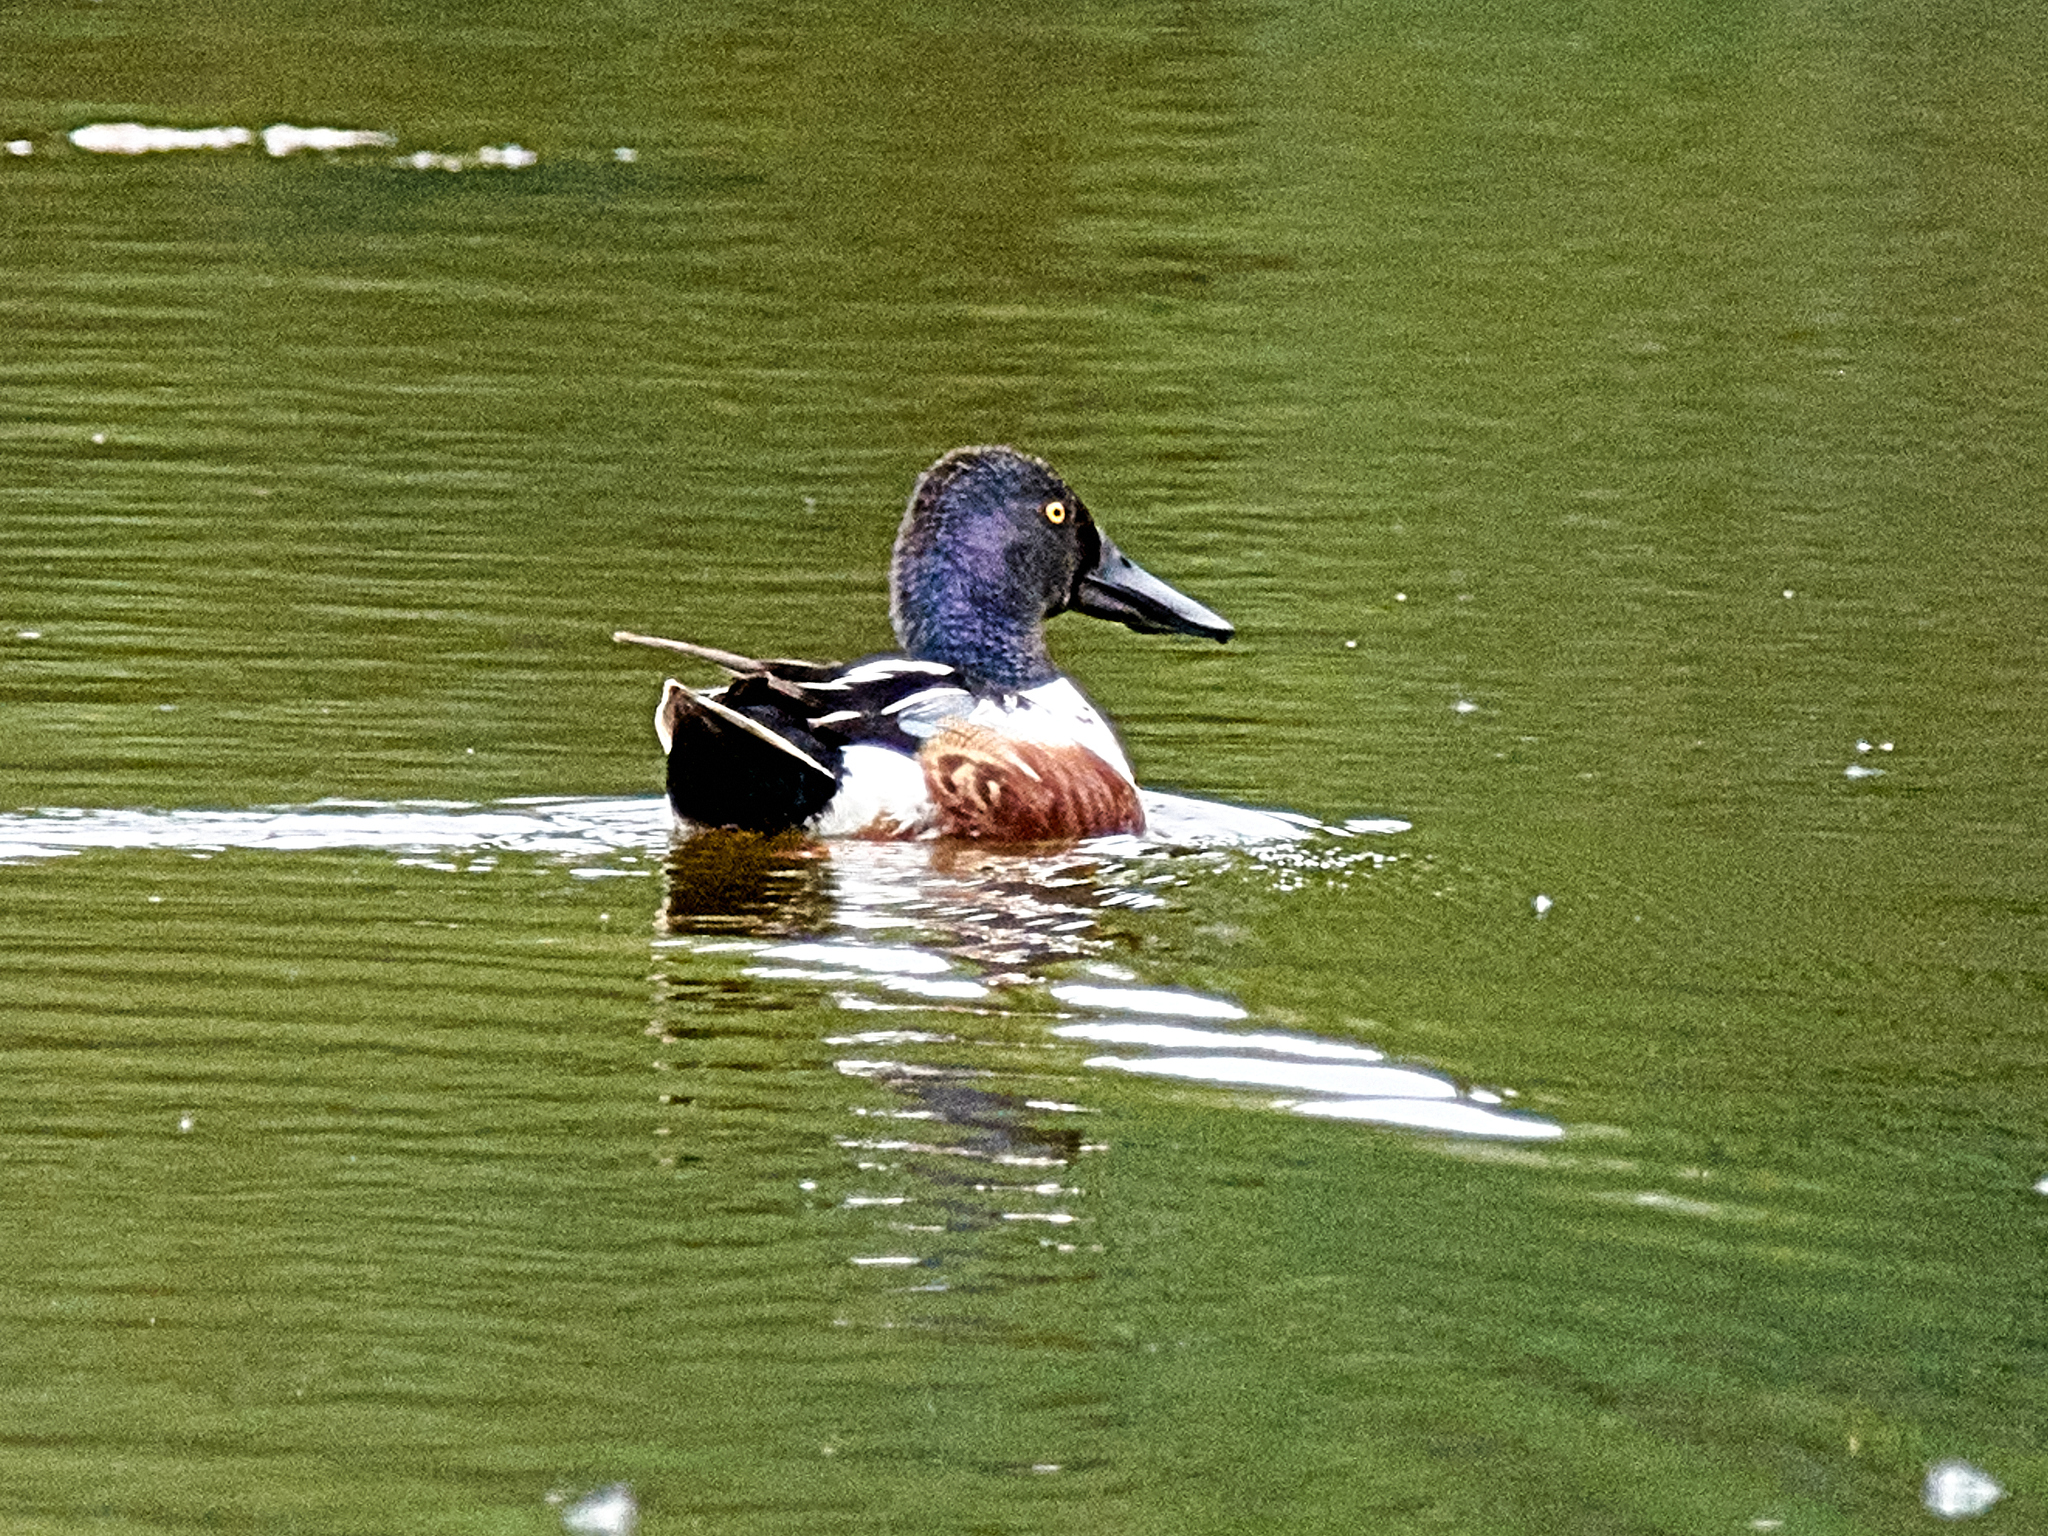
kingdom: Animalia
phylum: Chordata
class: Aves
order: Anseriformes
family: Anatidae
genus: Spatula
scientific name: Spatula clypeata
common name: Northern shoveler
